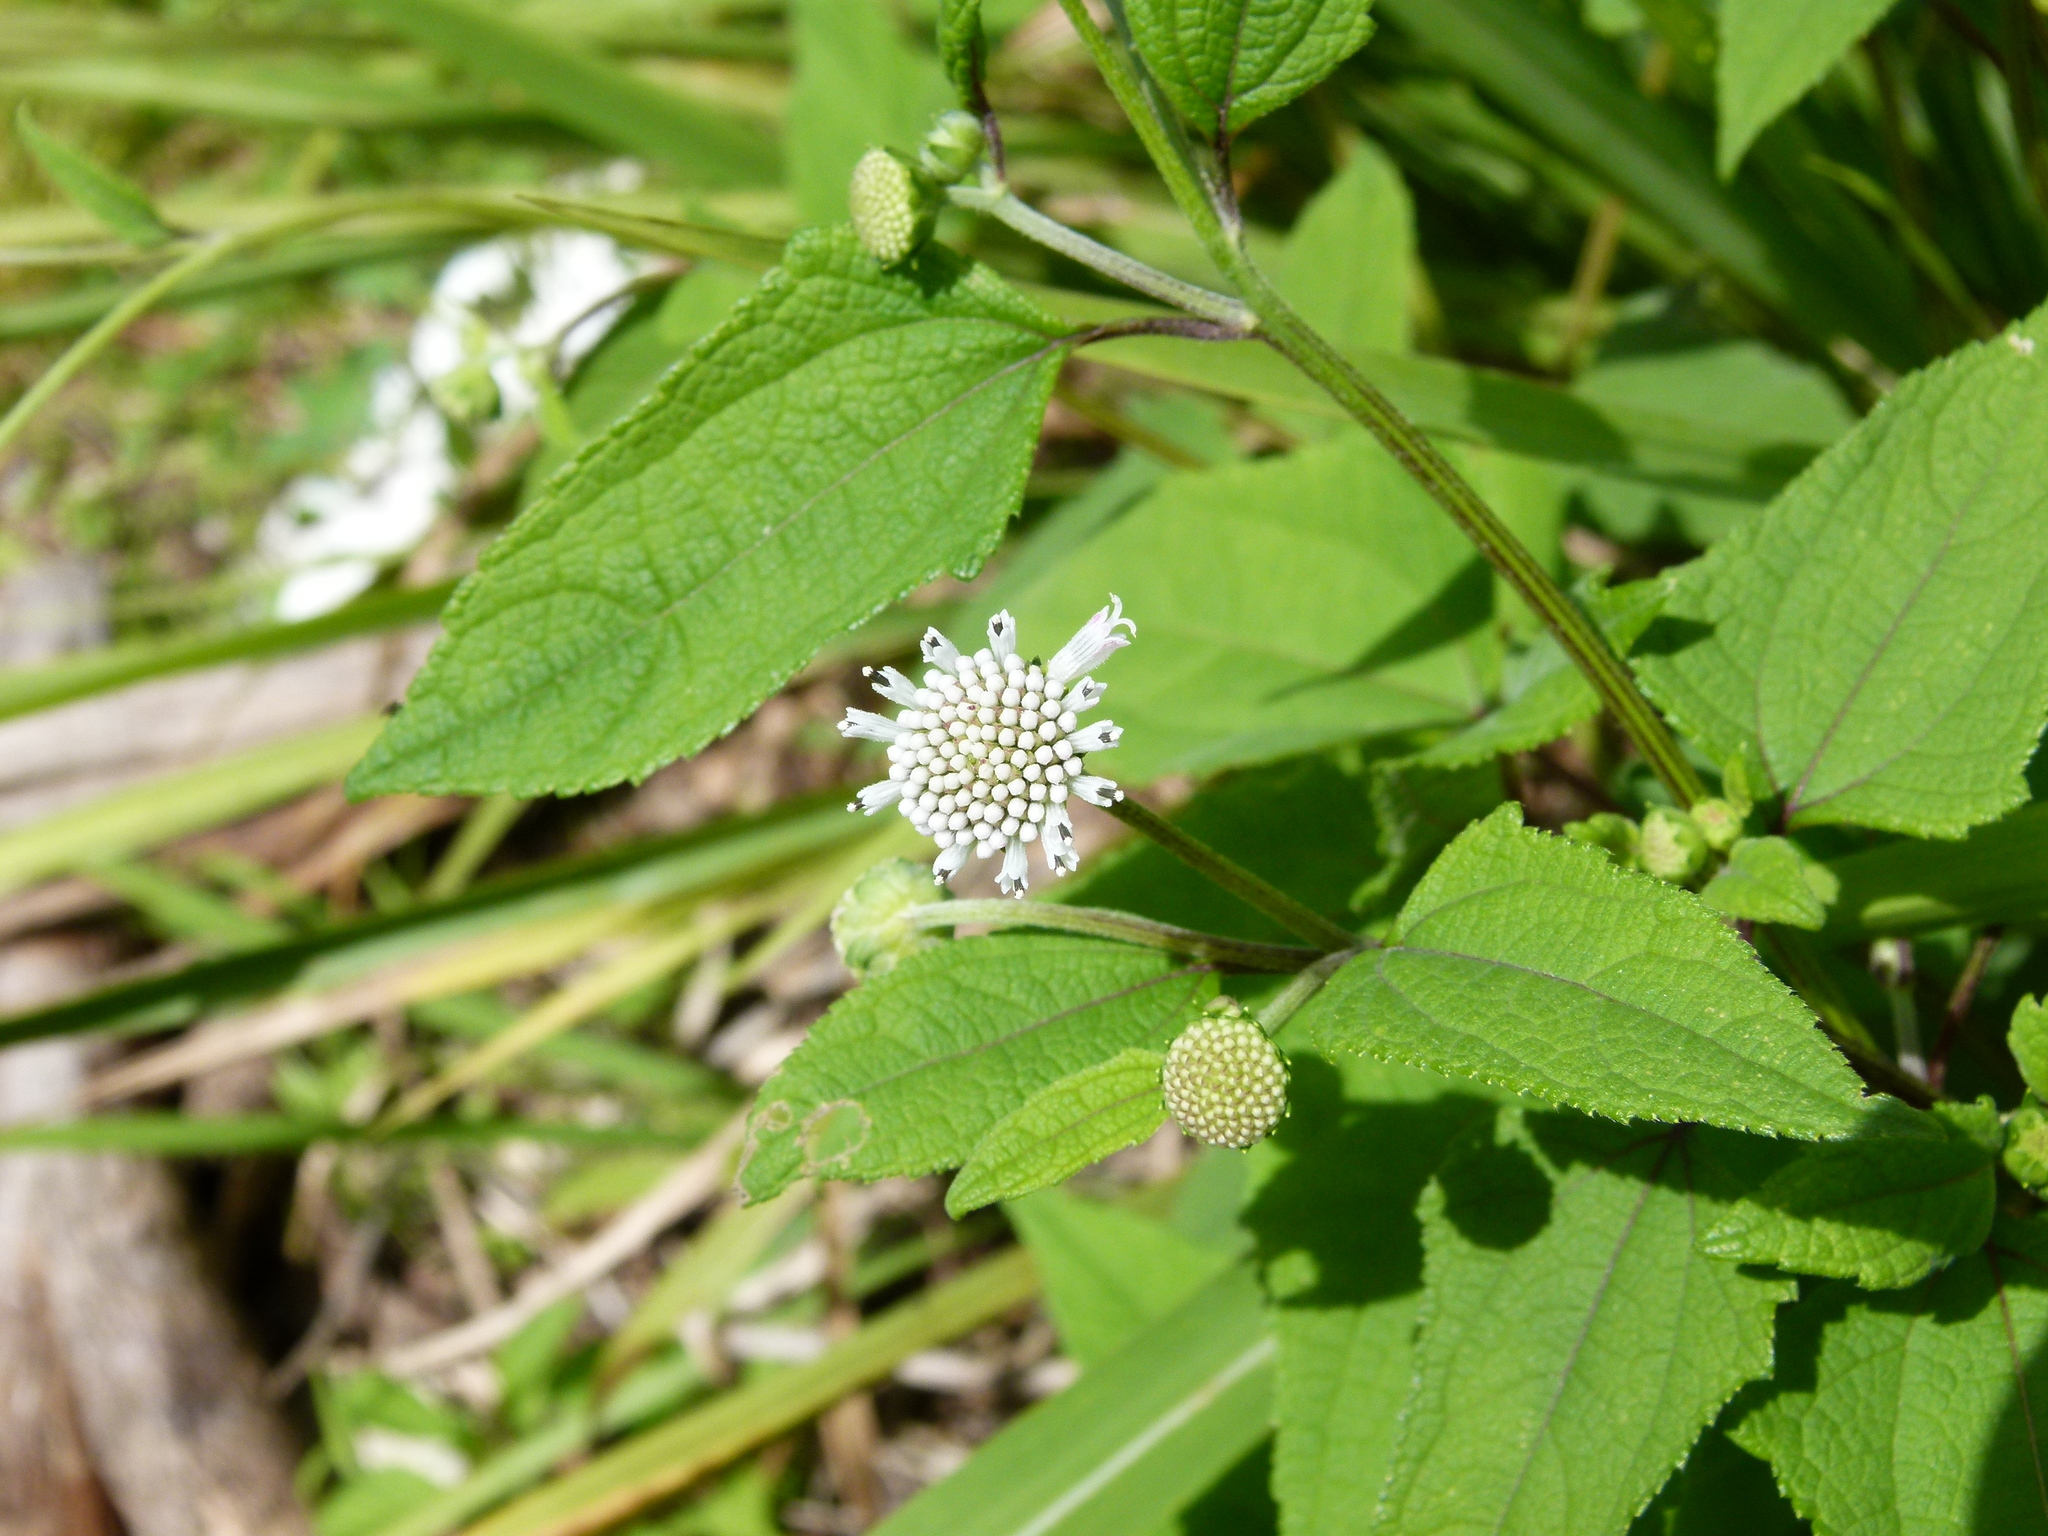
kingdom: Plantae
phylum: Tracheophyta
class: Magnoliopsida
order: Asterales
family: Asteraceae
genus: Melanthera
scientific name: Melanthera nivea
